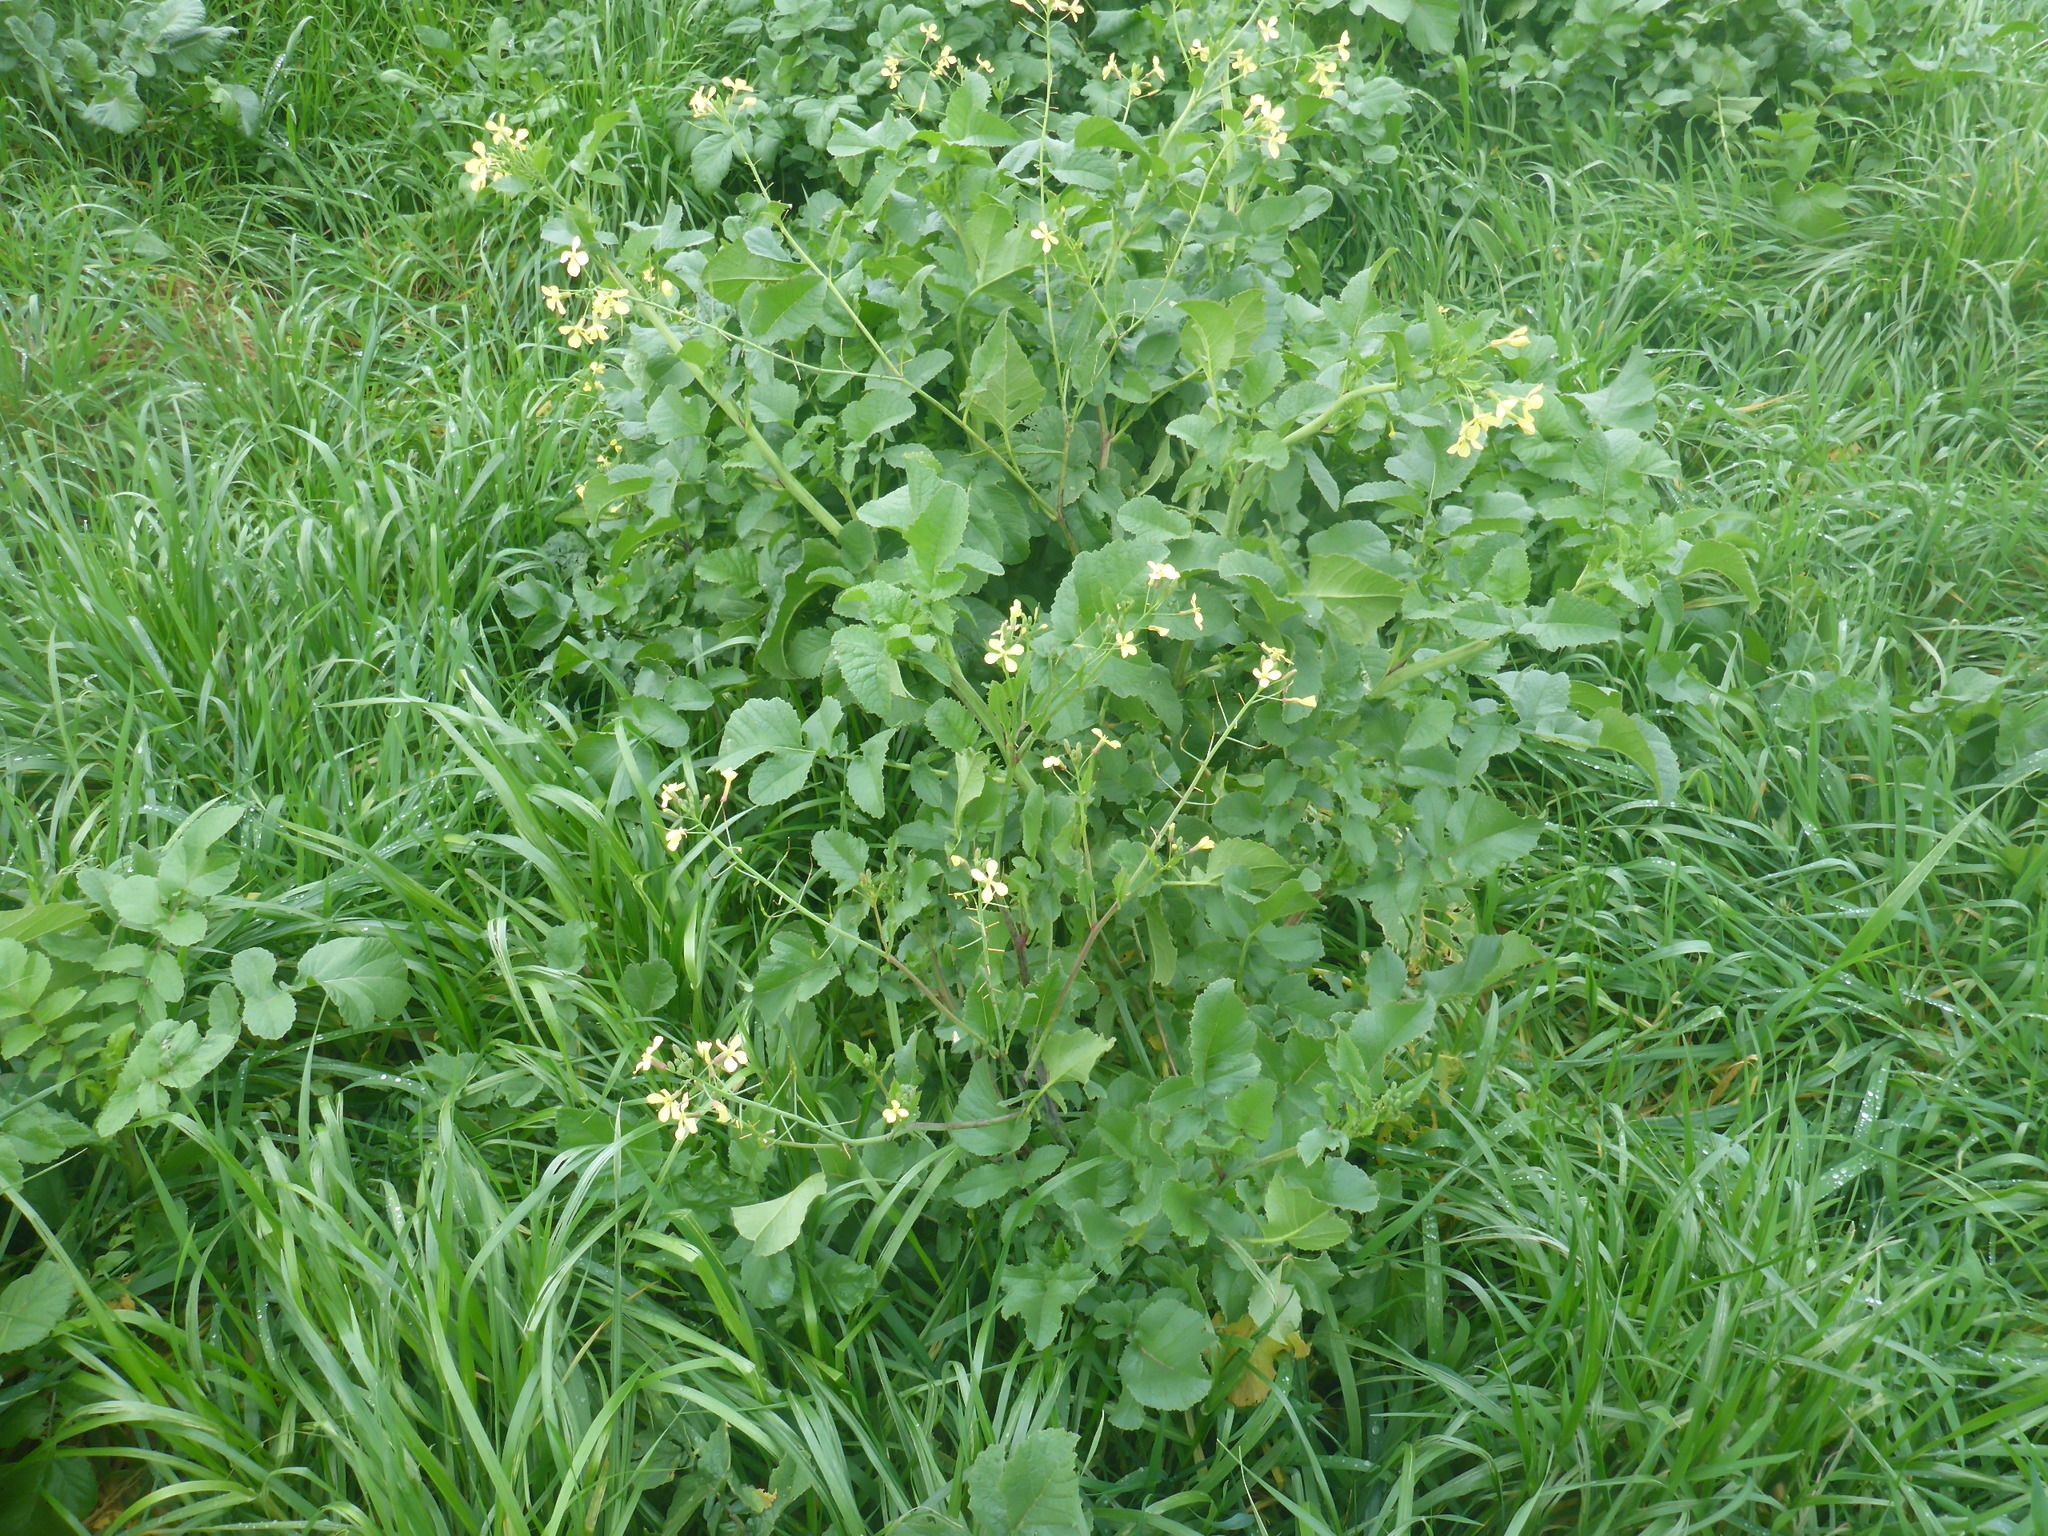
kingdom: Plantae
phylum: Tracheophyta
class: Magnoliopsida
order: Brassicales
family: Brassicaceae
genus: Raphanus
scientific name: Raphanus raphanistrum
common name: Wild radish
